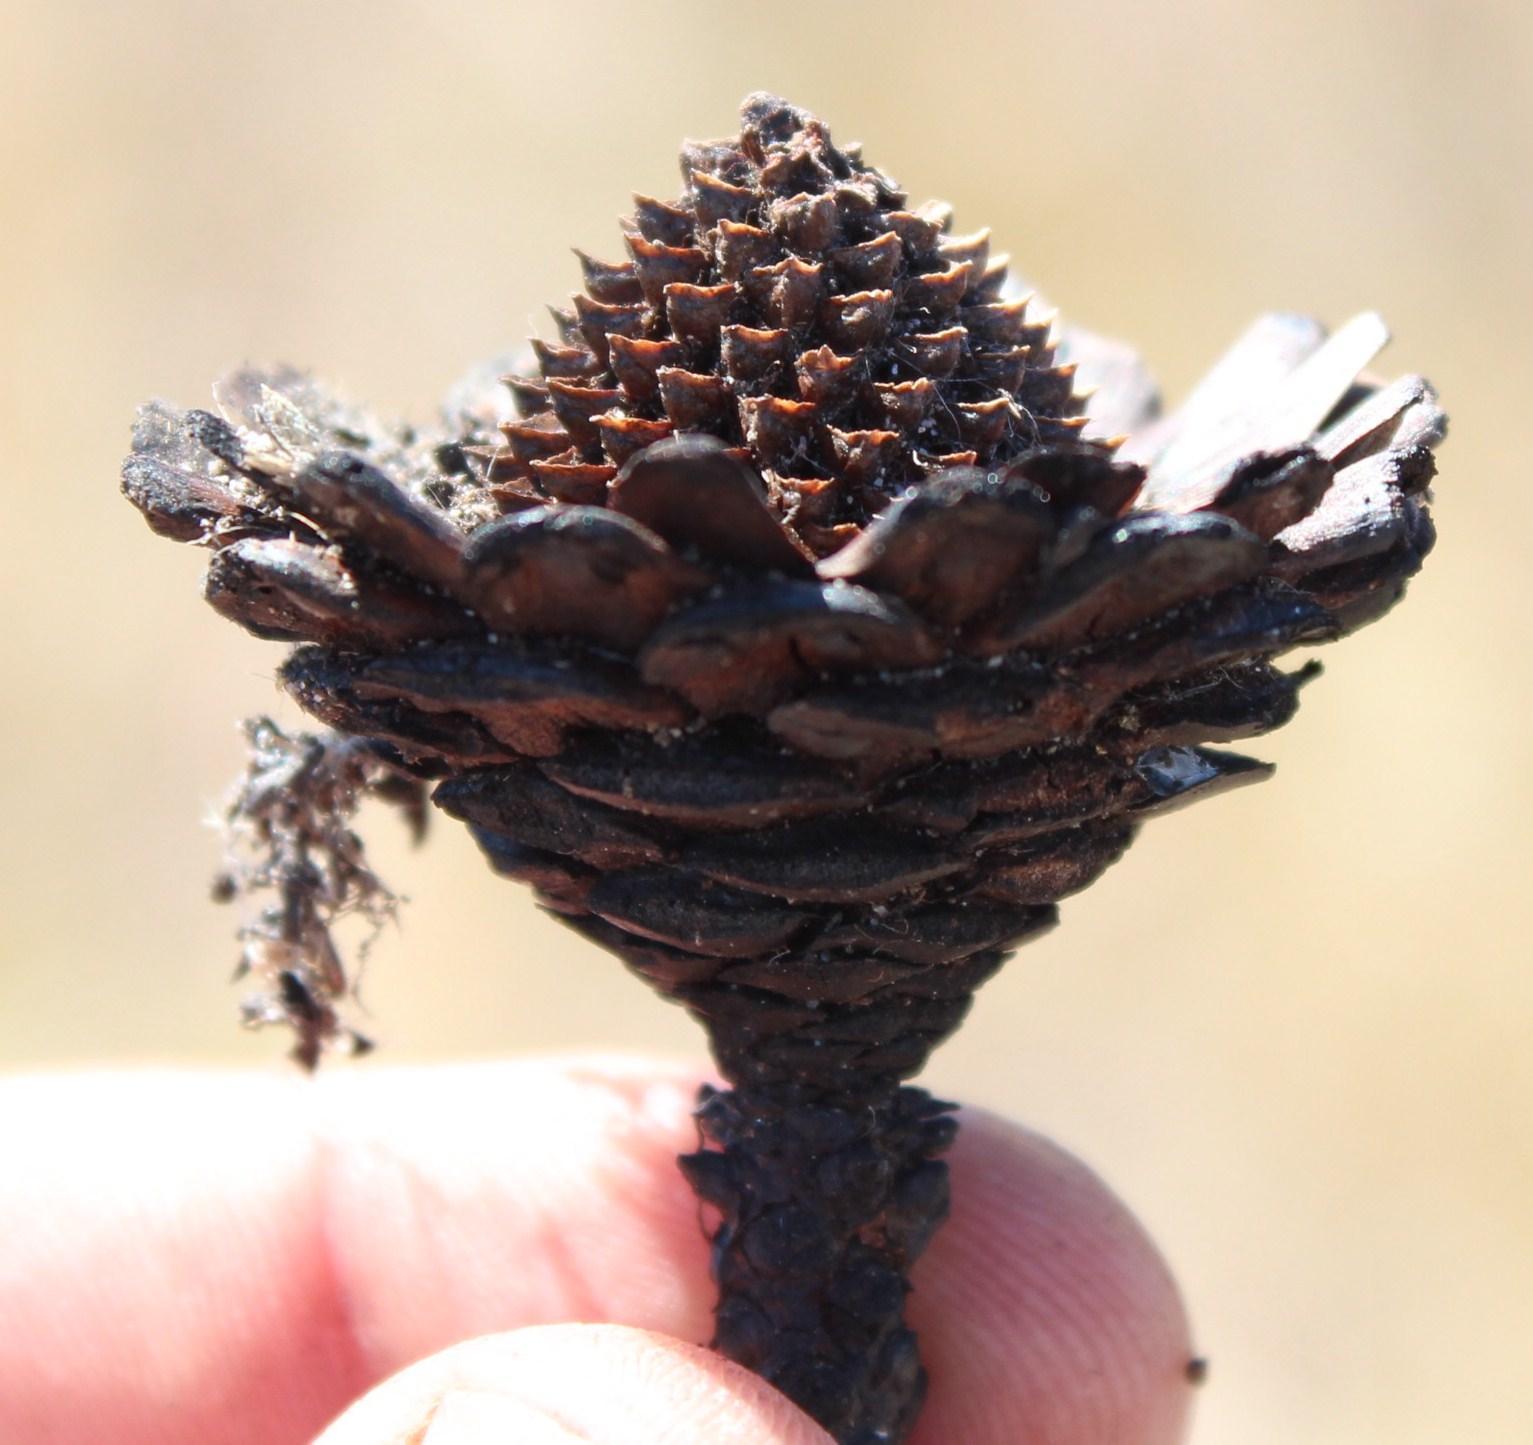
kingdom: Plantae
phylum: Tracheophyta
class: Magnoliopsida
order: Proteales
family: Proteaceae
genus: Protea
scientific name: Protea scorzonerifolia
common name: Channel-leaf sugarbush
